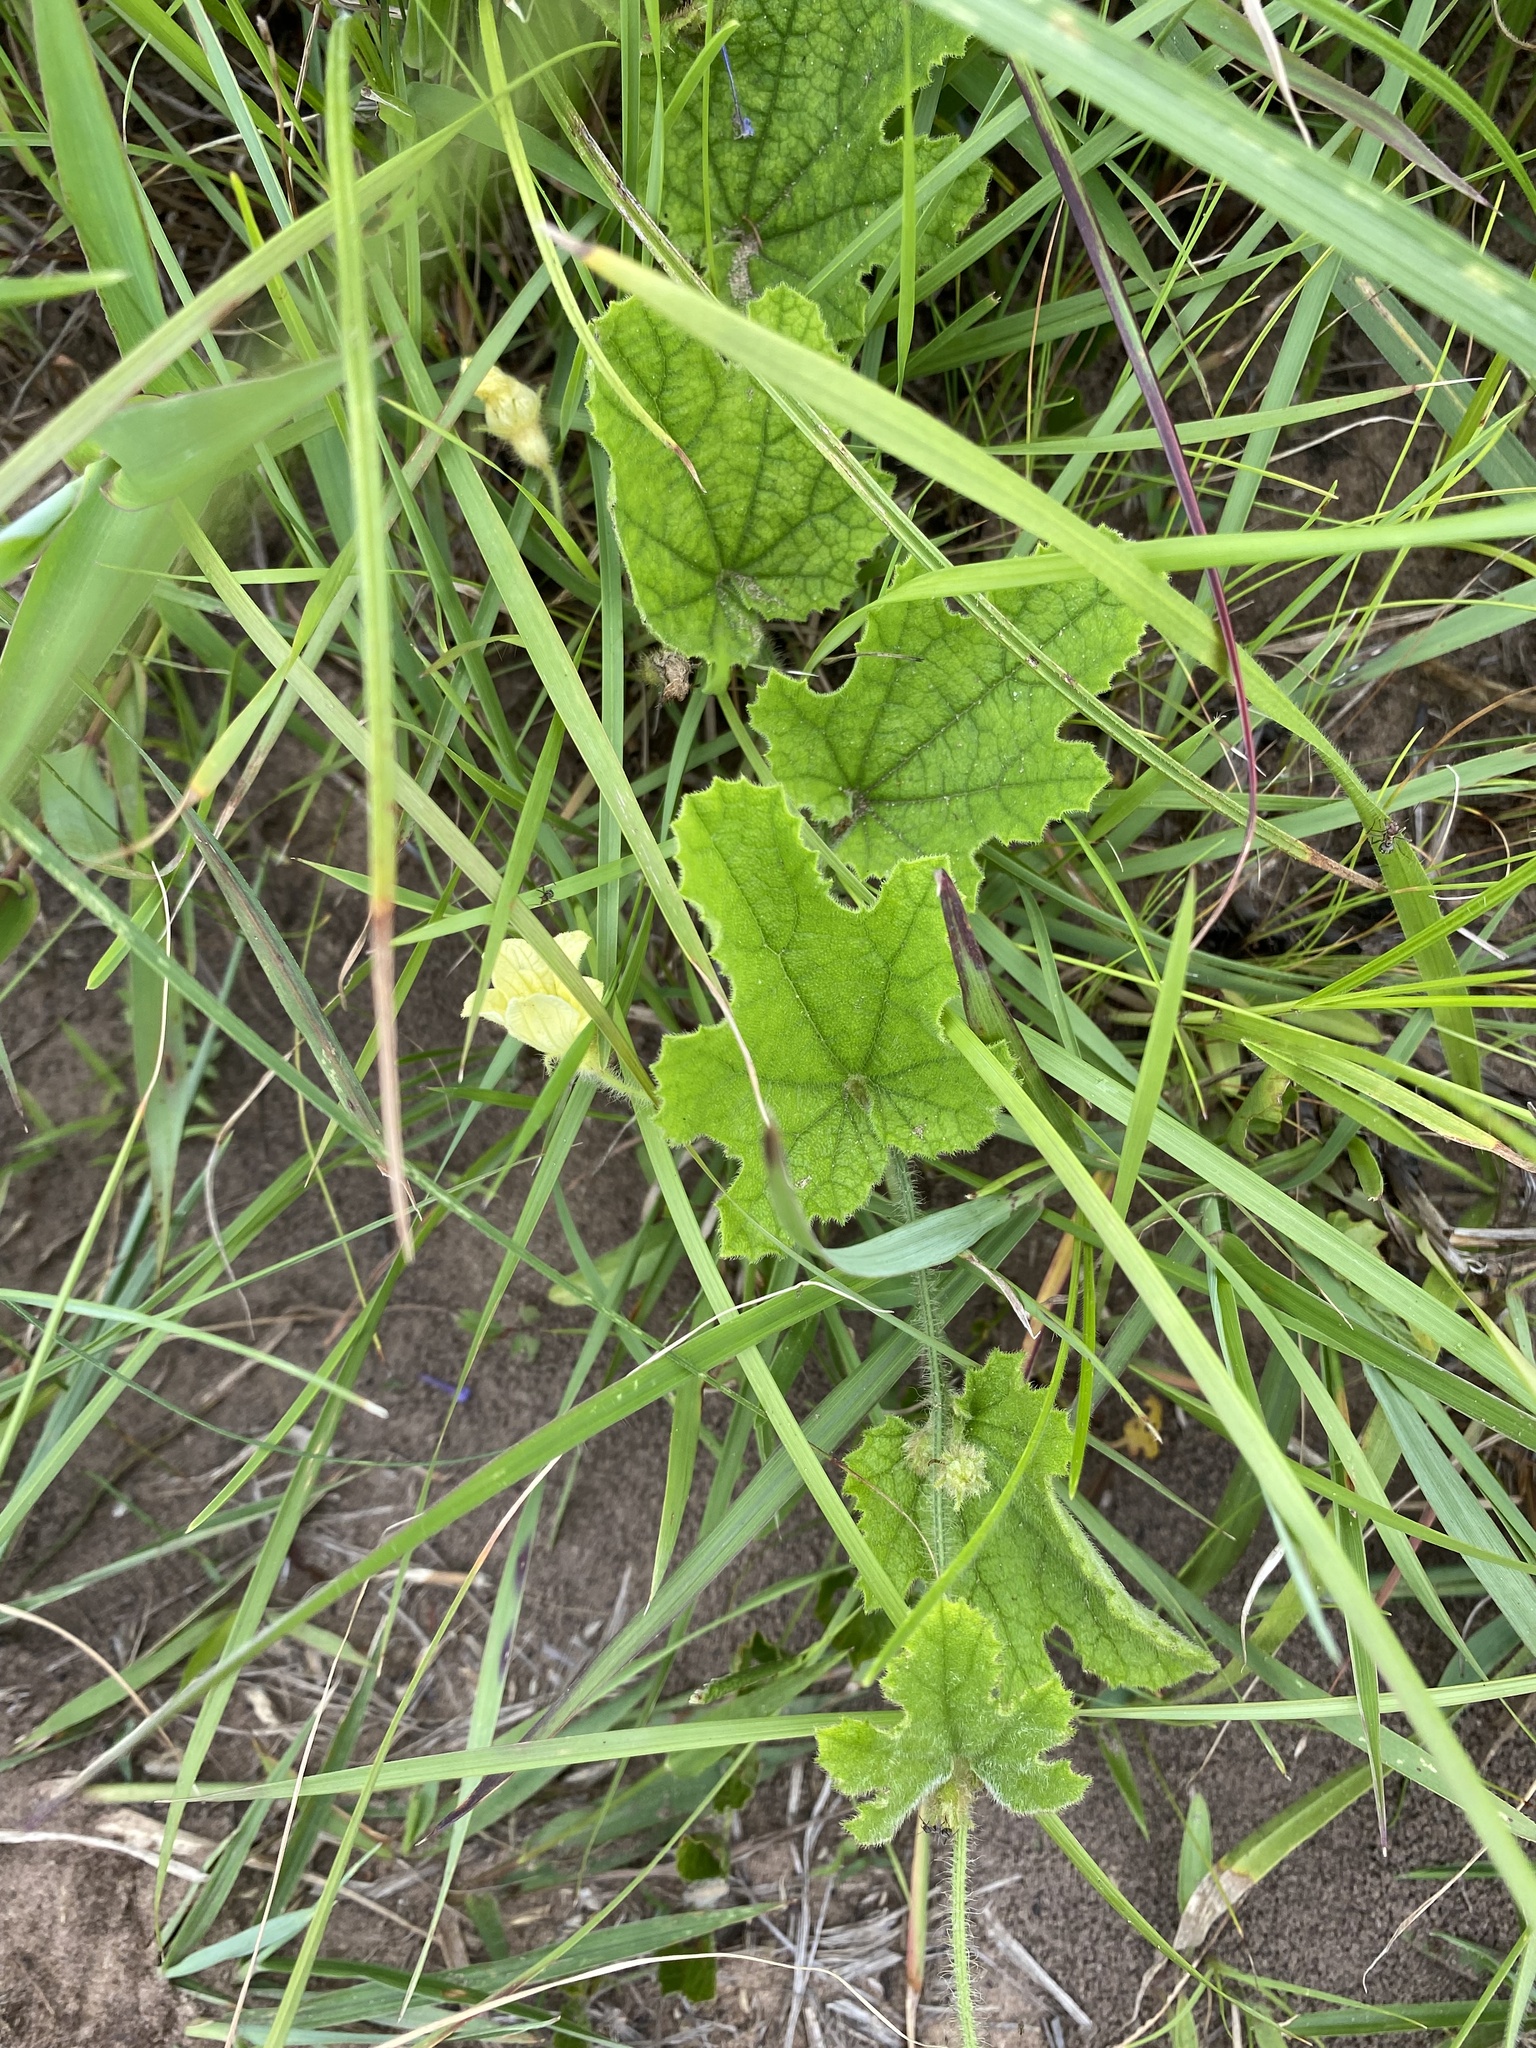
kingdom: Plantae
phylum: Tracheophyta
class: Magnoliopsida
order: Cucurbitales
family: Cucurbitaceae
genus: Cucumis
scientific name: Cucumis hirsutus
